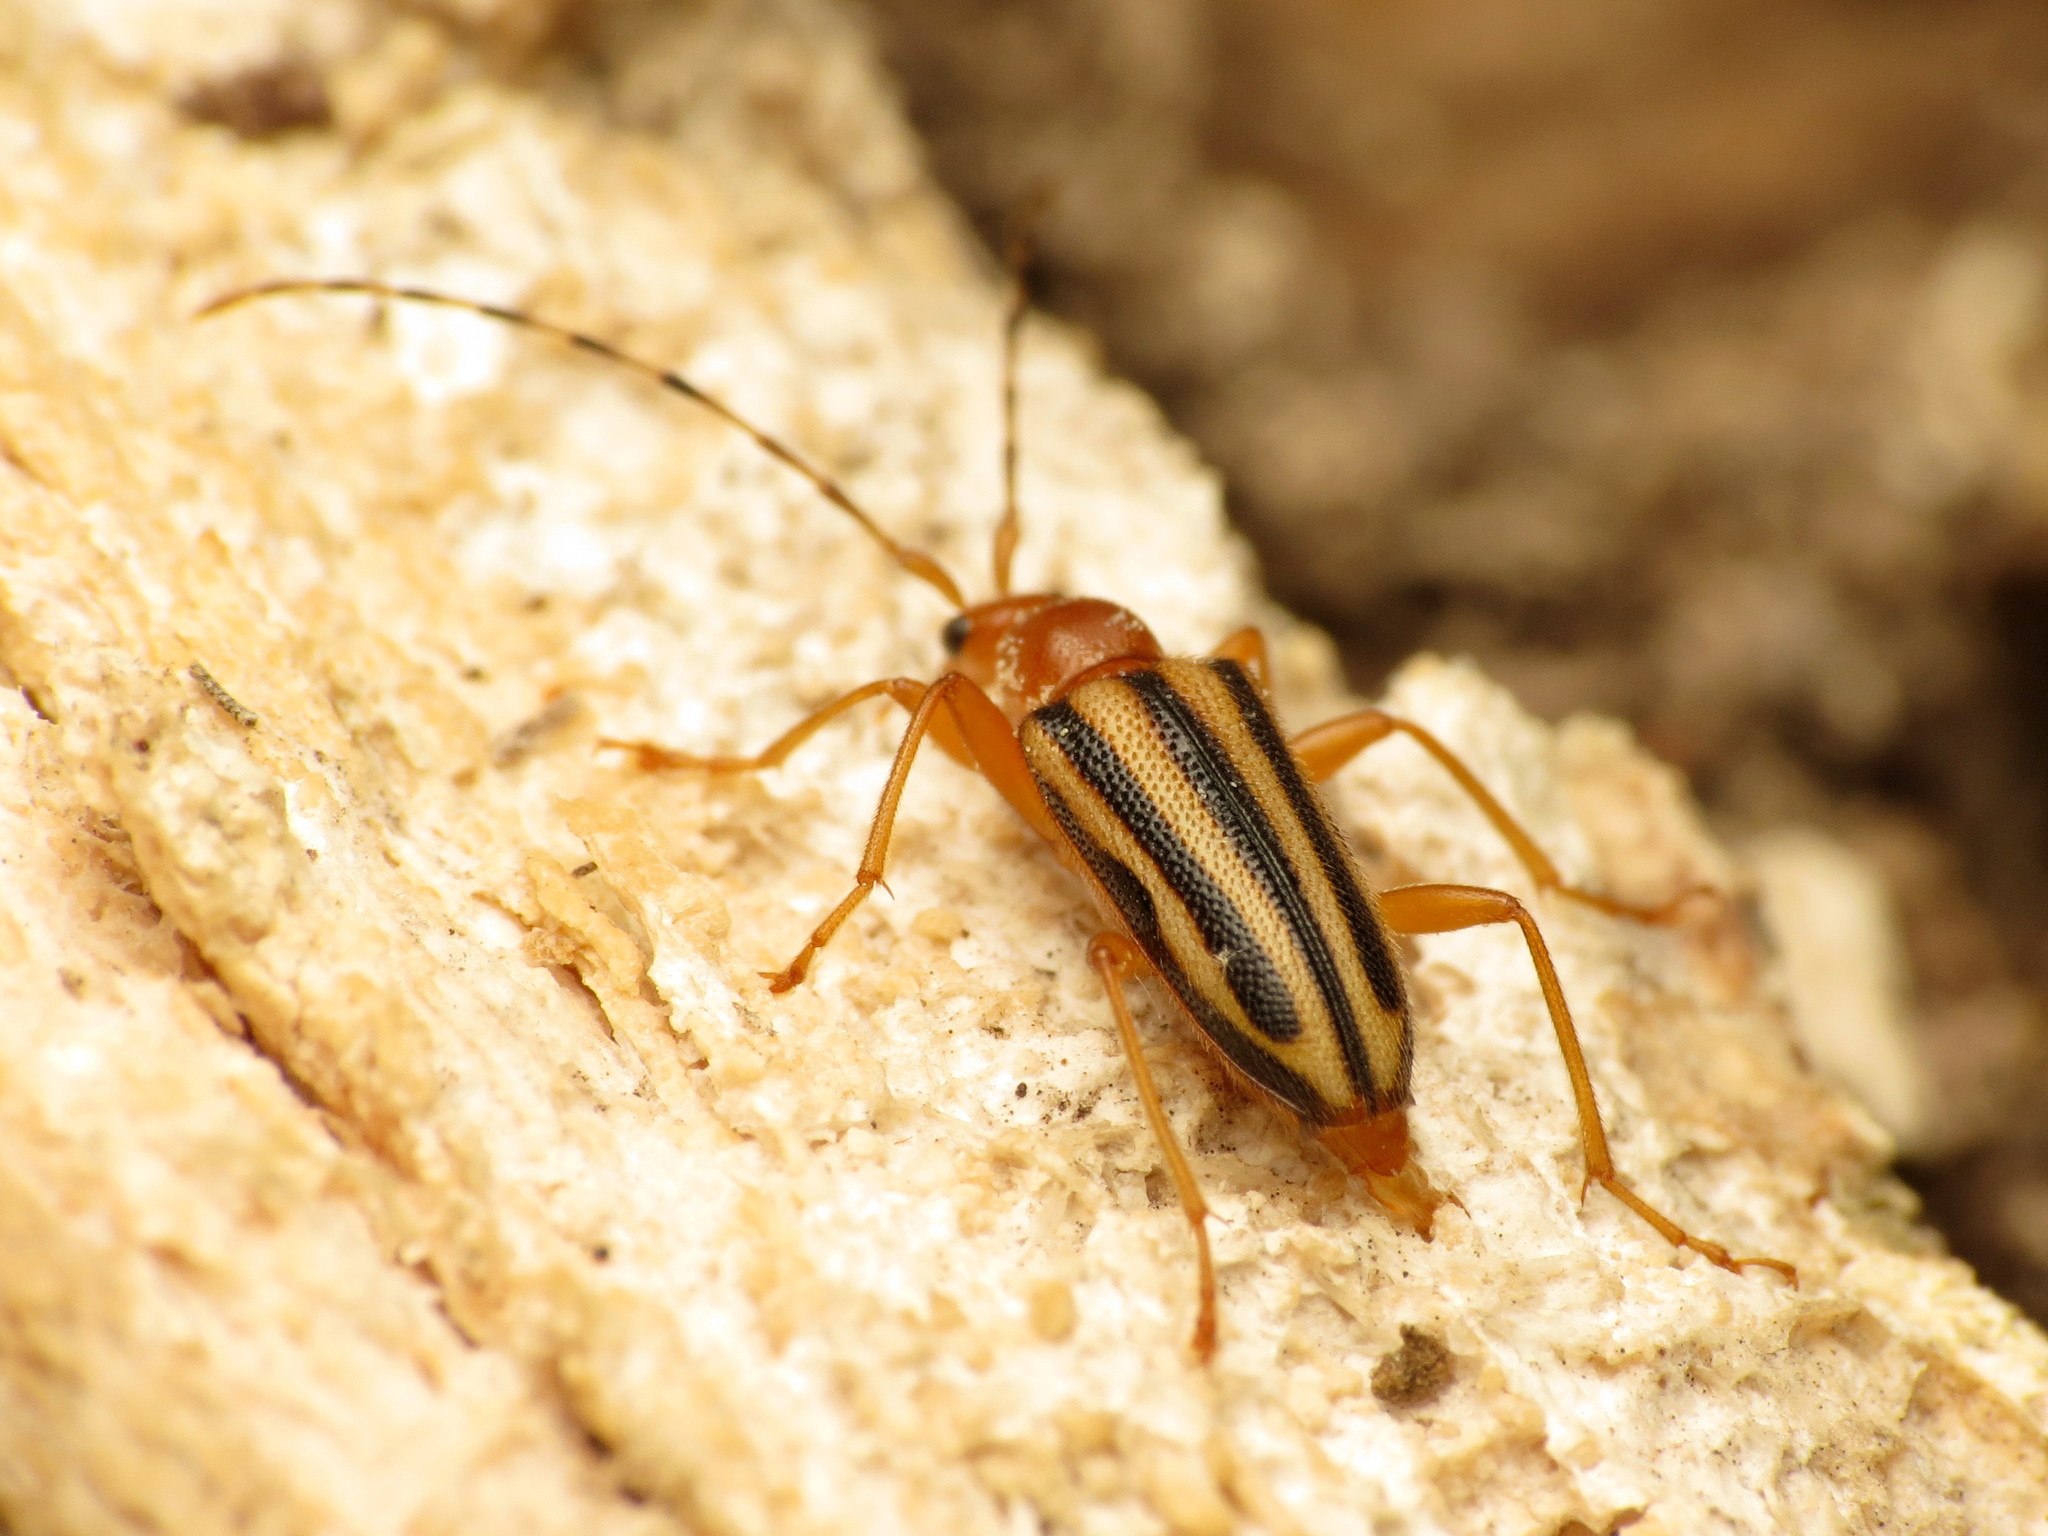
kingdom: Animalia
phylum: Arthropoda
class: Insecta
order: Coleoptera
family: Cerambycidae
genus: Metacmaeops
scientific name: Metacmaeops vittata
